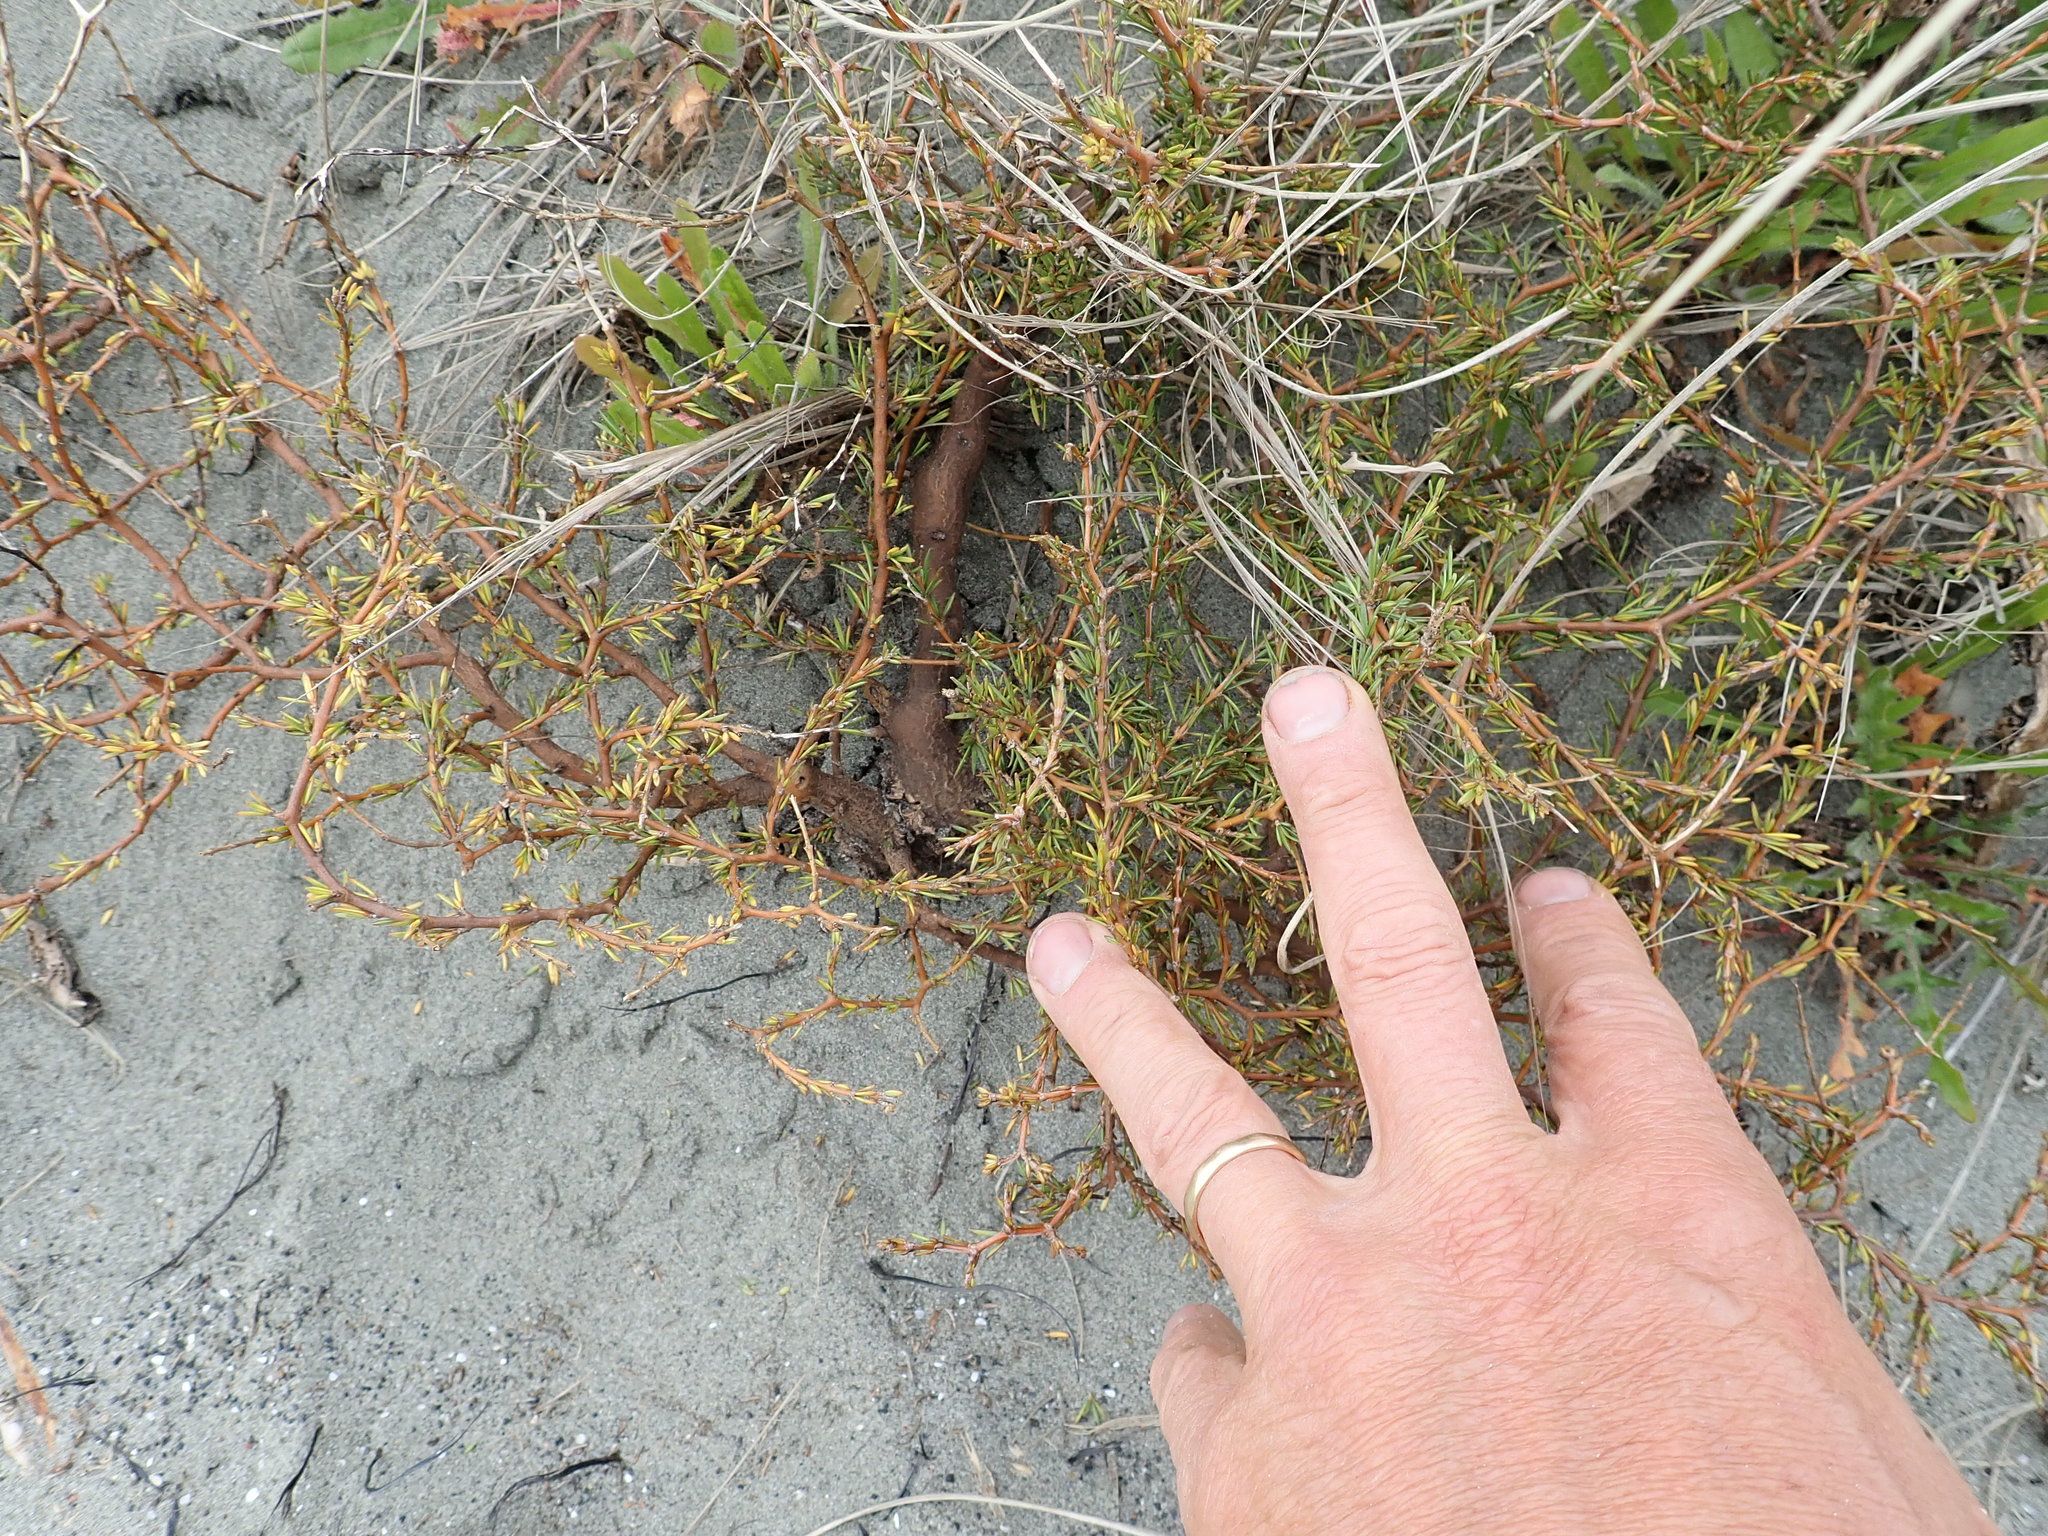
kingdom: Plantae
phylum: Tracheophyta
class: Magnoliopsida
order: Gentianales
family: Rubiaceae
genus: Coprosma
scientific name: Coprosma acerosa
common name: Sand coprosma
